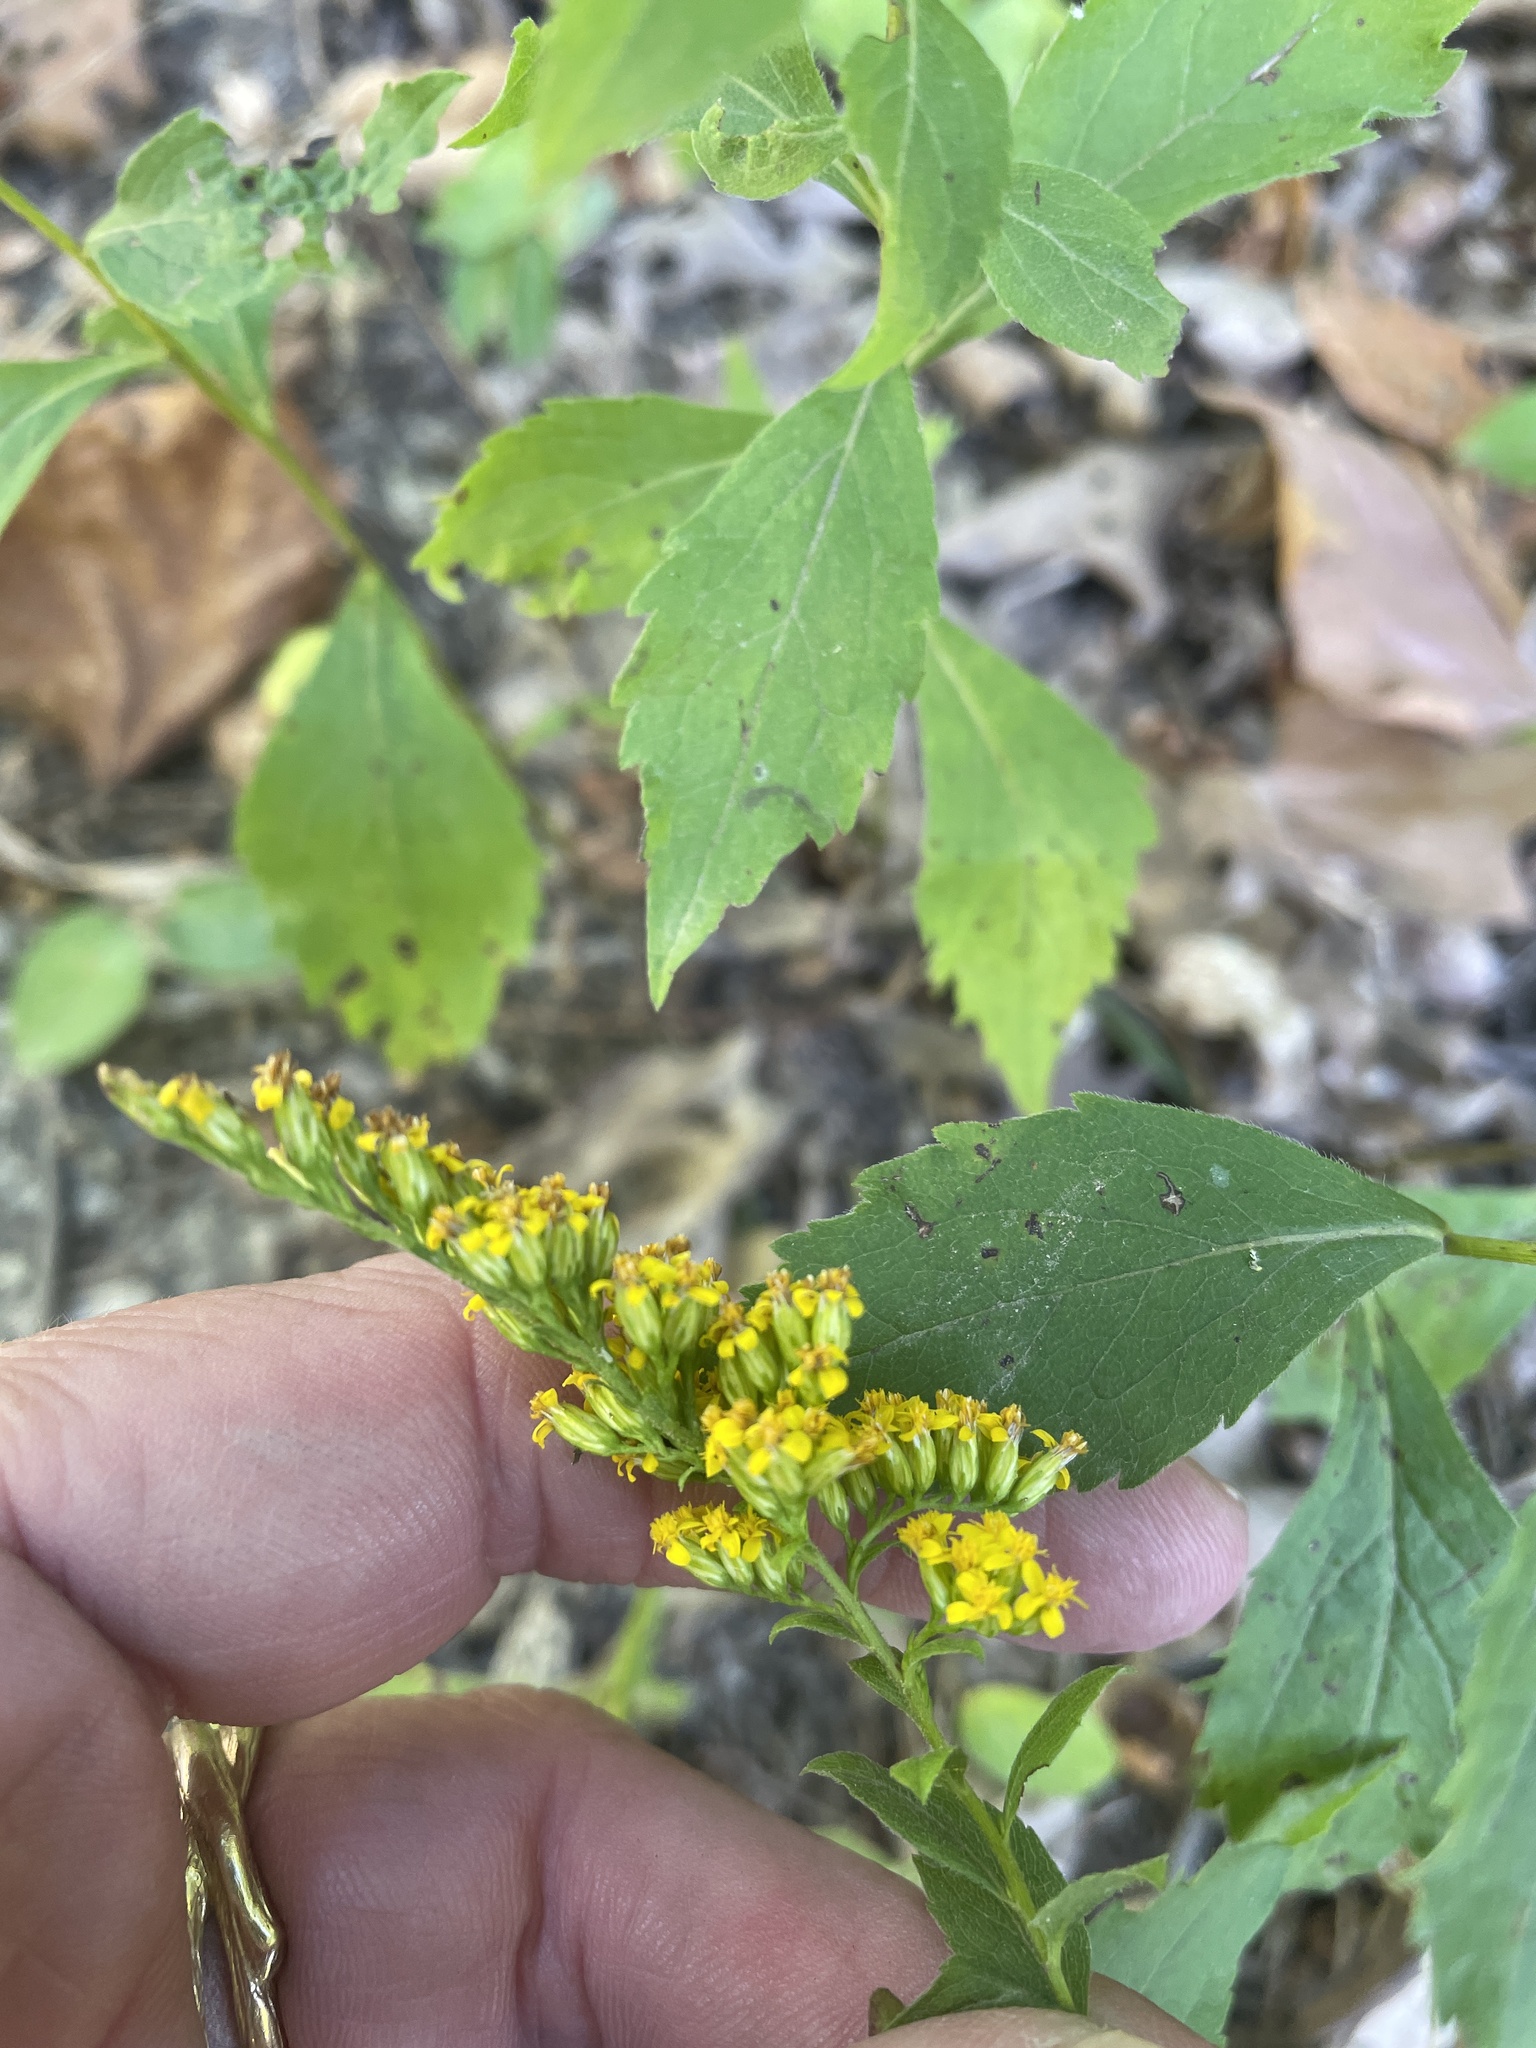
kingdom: Plantae
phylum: Tracheophyta
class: Magnoliopsida
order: Asterales
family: Asteraceae
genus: Solidago
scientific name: Solidago ulmifolia
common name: Elm-leaf goldenrod
